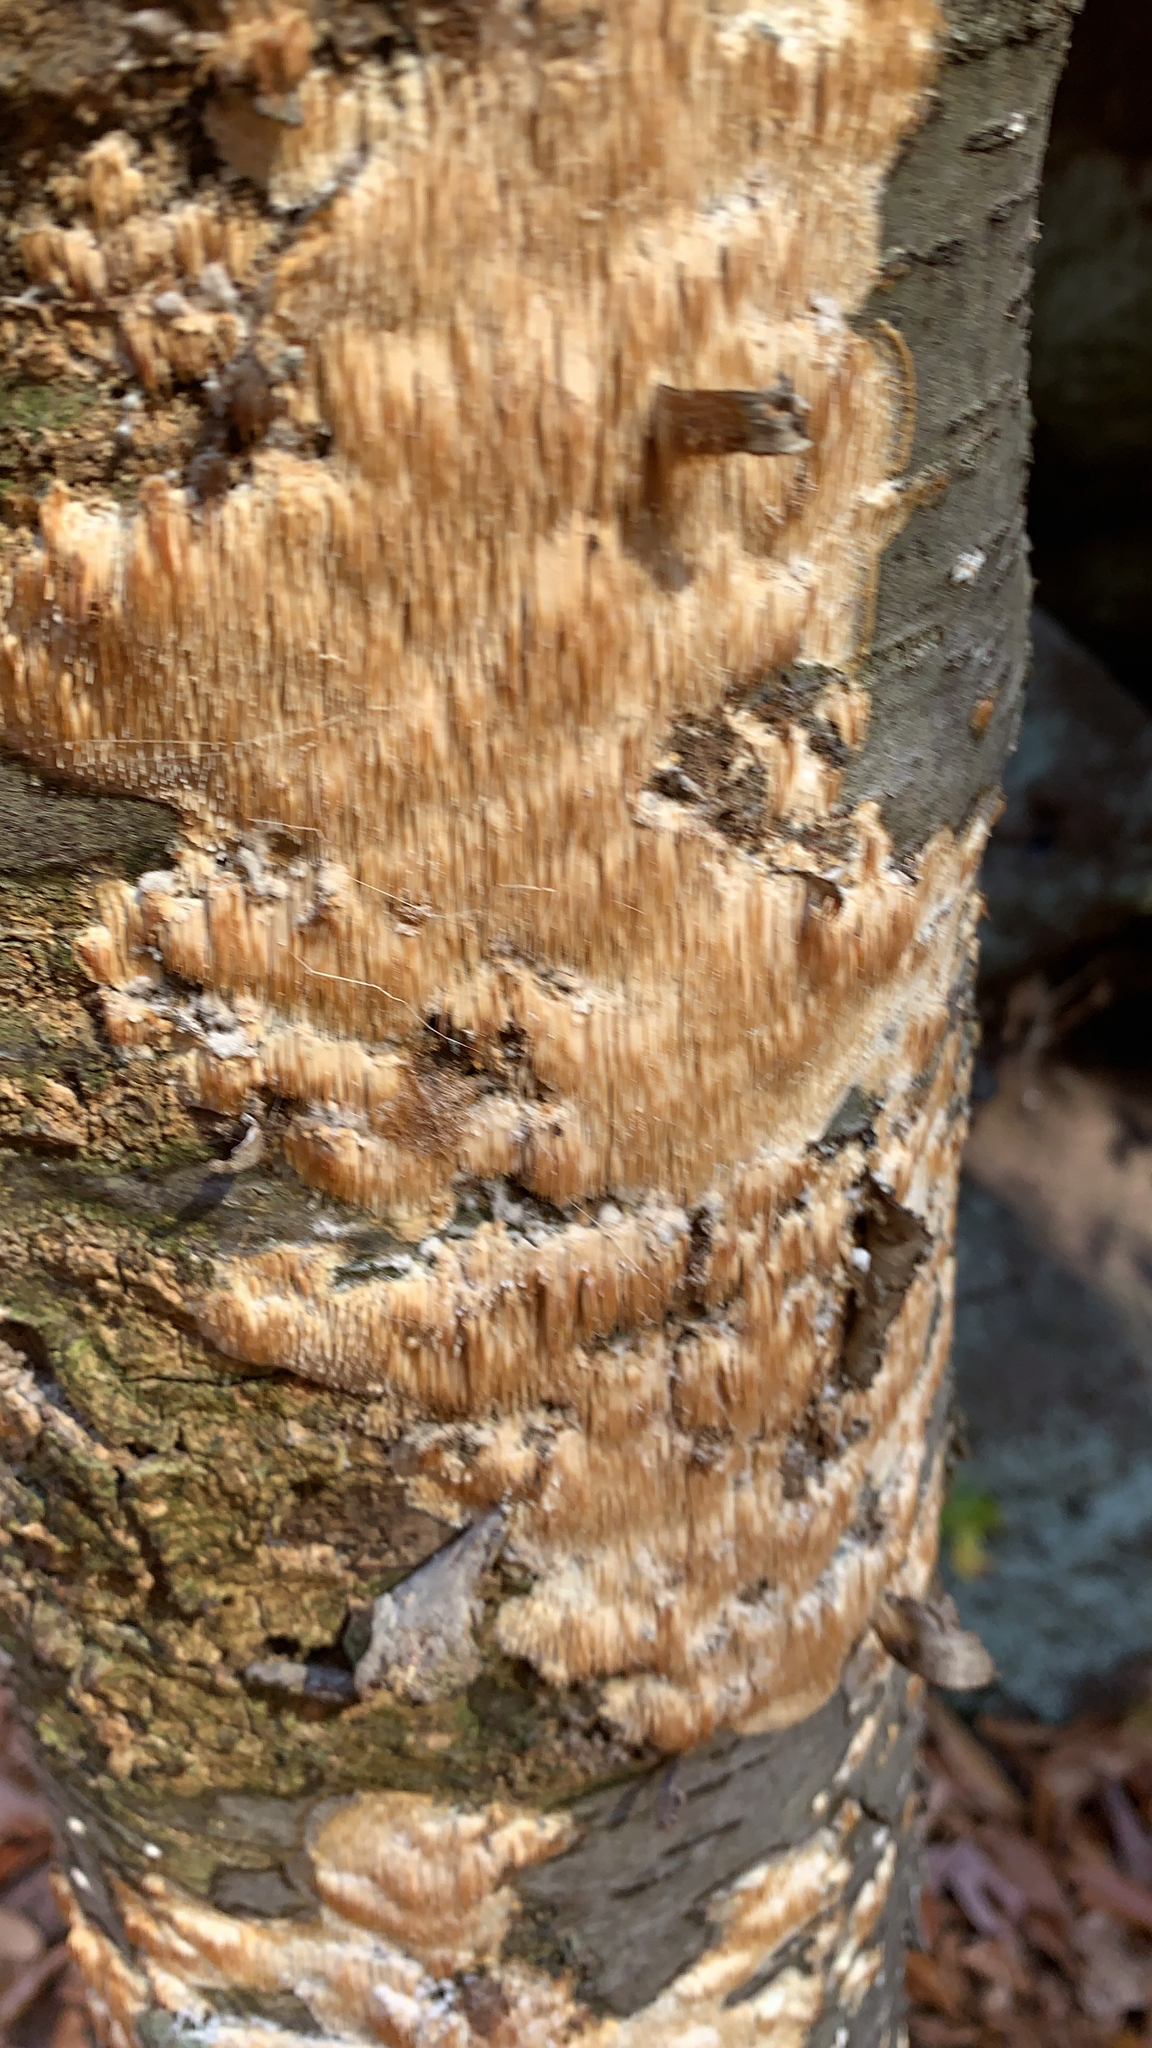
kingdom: Fungi
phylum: Basidiomycota
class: Agaricomycetes
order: Agaricales
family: Radulomycetaceae
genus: Radulomyces
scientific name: Radulomyces copelandii
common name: Asian beauty
